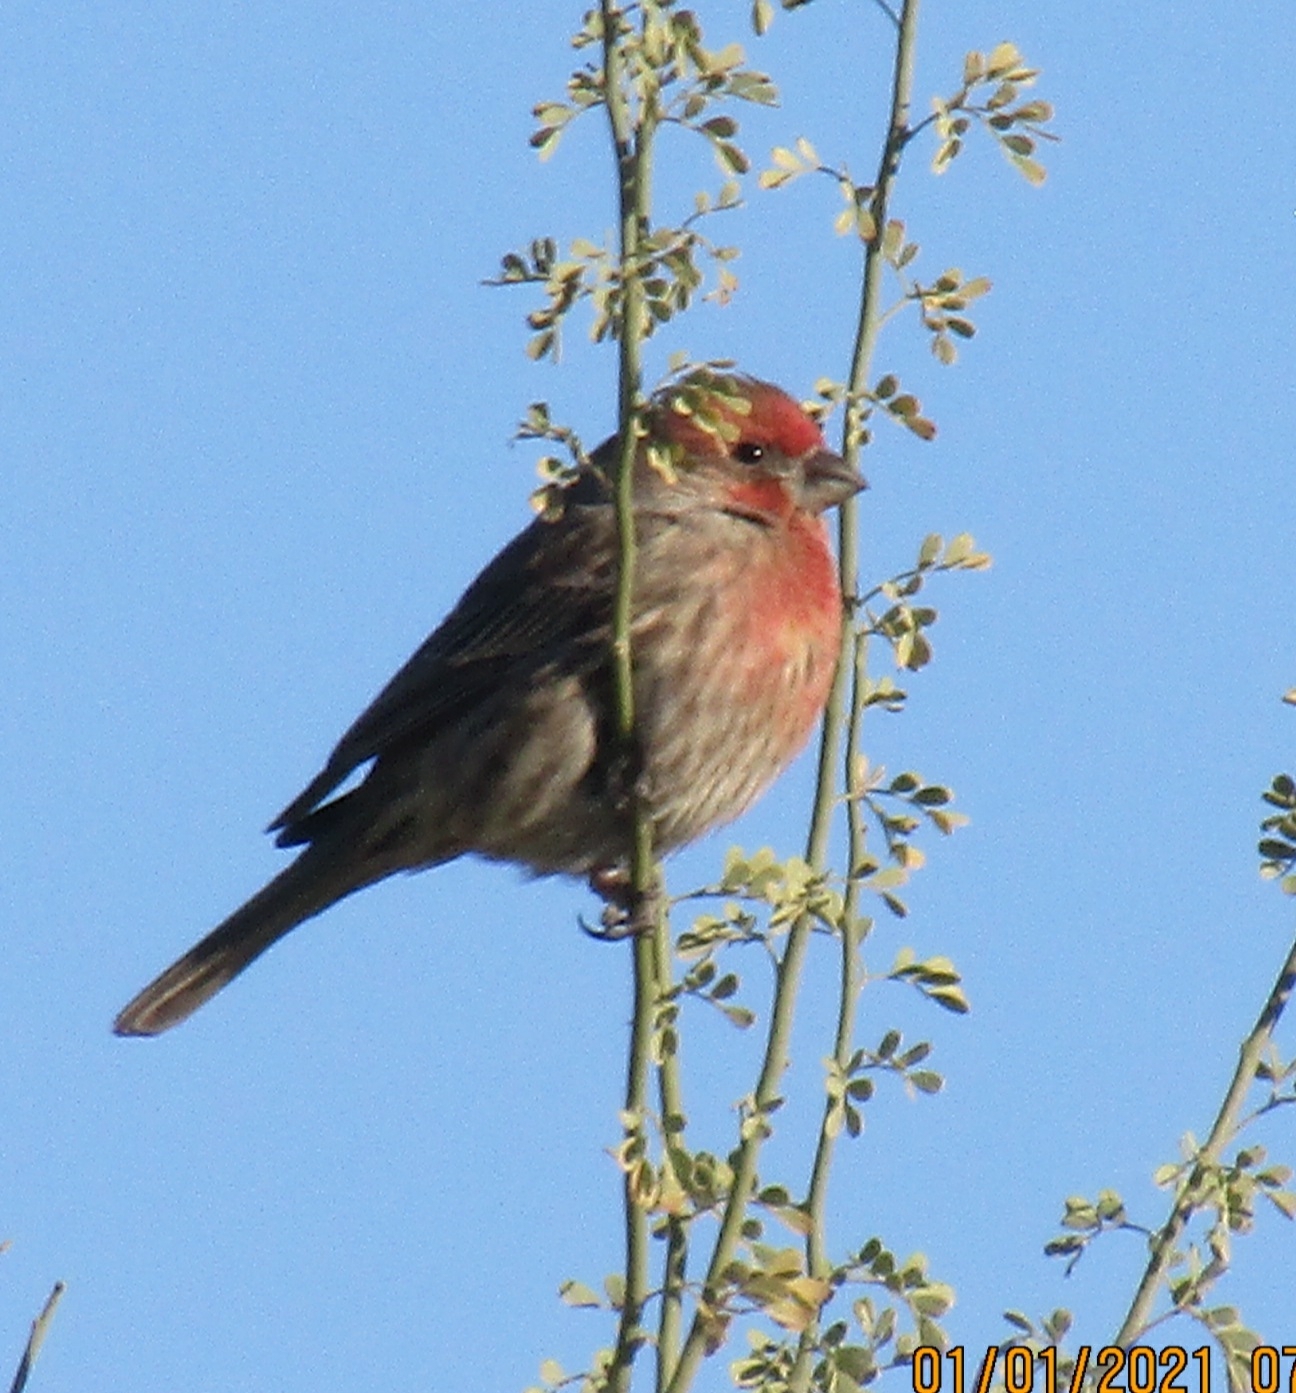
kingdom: Animalia
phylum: Chordata
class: Aves
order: Passeriformes
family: Fringillidae
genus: Haemorhous
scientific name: Haemorhous mexicanus
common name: House finch
